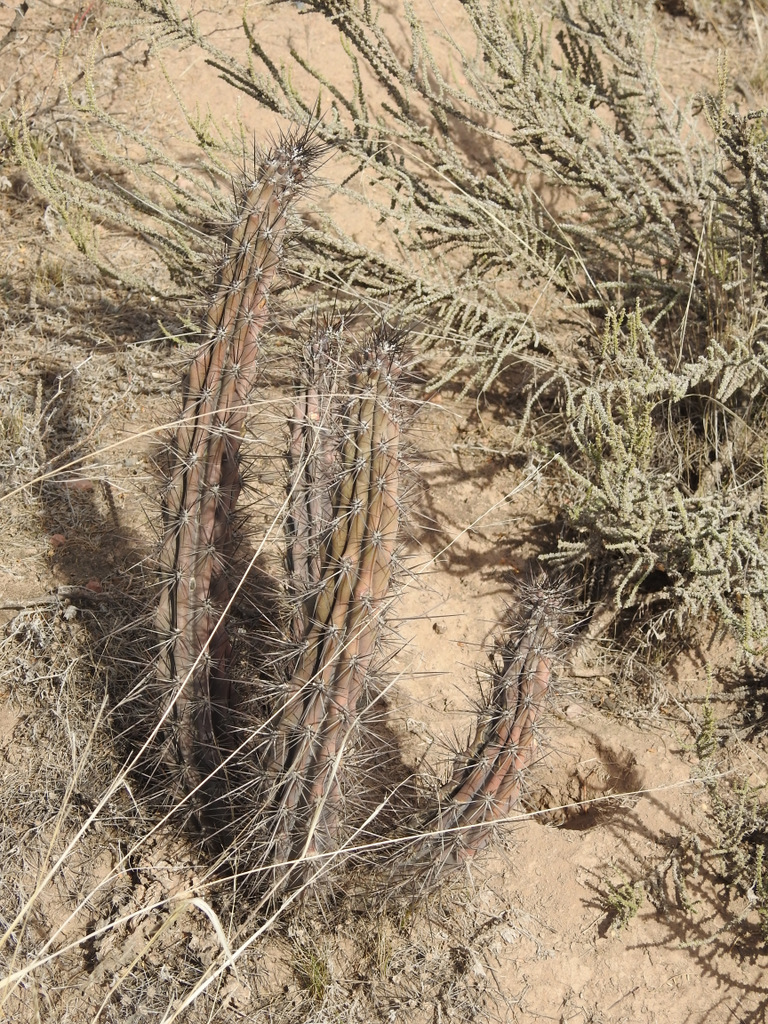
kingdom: Plantae
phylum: Tracheophyta
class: Magnoliopsida
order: Caryophyllales
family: Cactaceae
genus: Cereus
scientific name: Cereus aethiops
